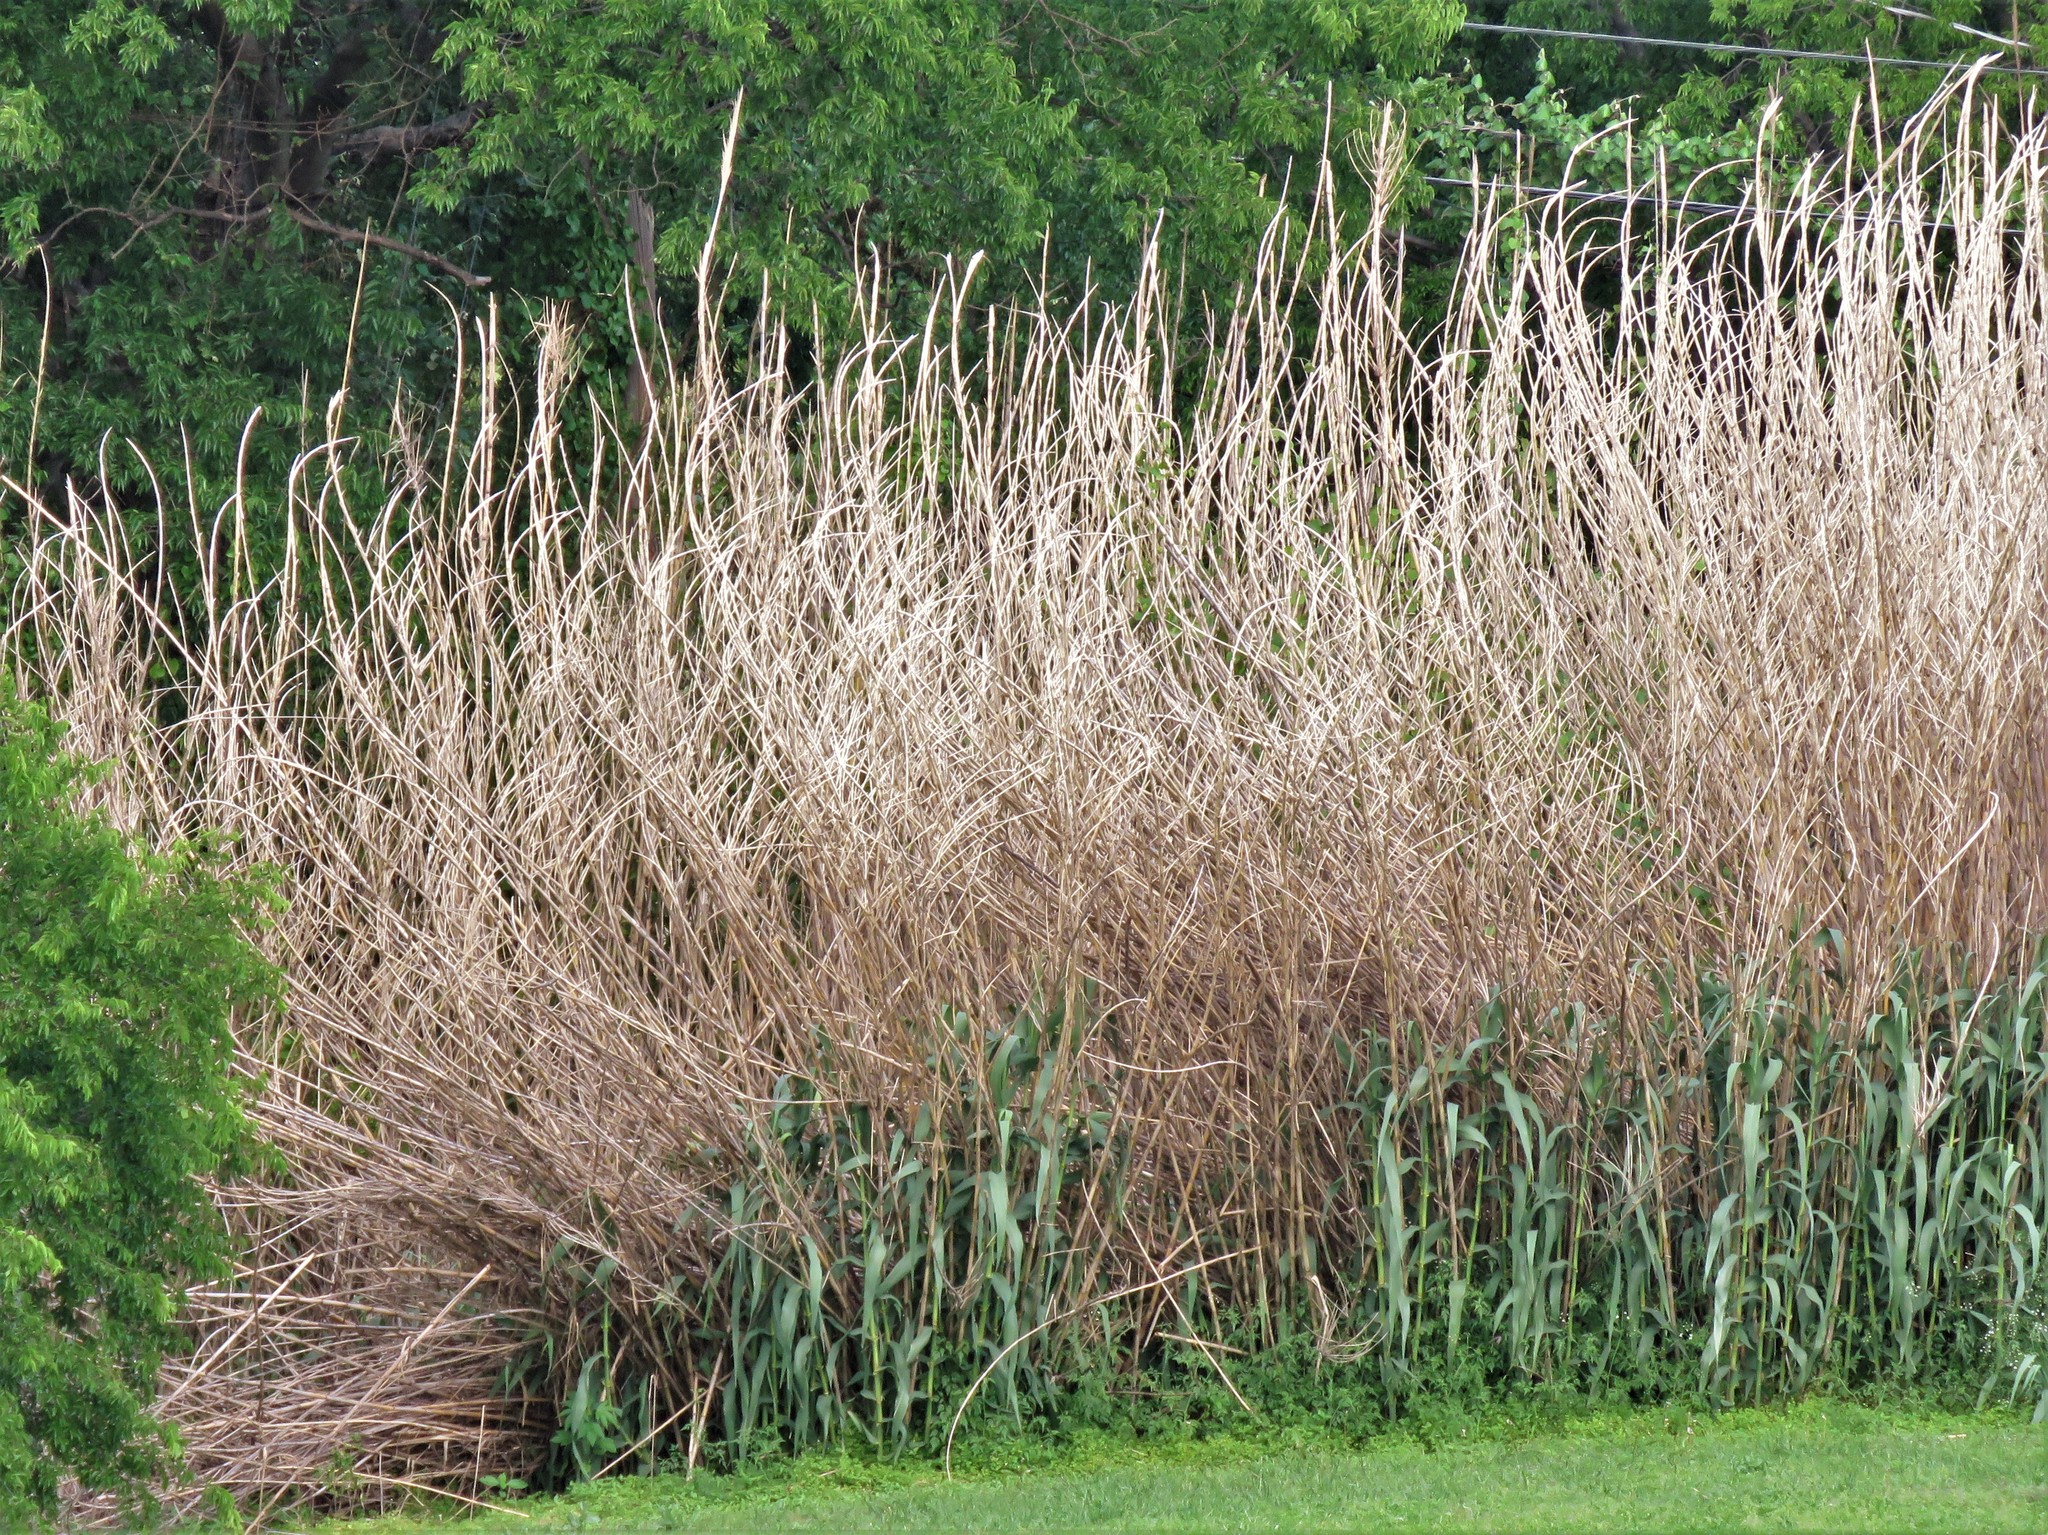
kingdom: Plantae
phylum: Tracheophyta
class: Liliopsida
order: Poales
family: Poaceae
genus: Arundo
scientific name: Arundo donax
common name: Giant reed
